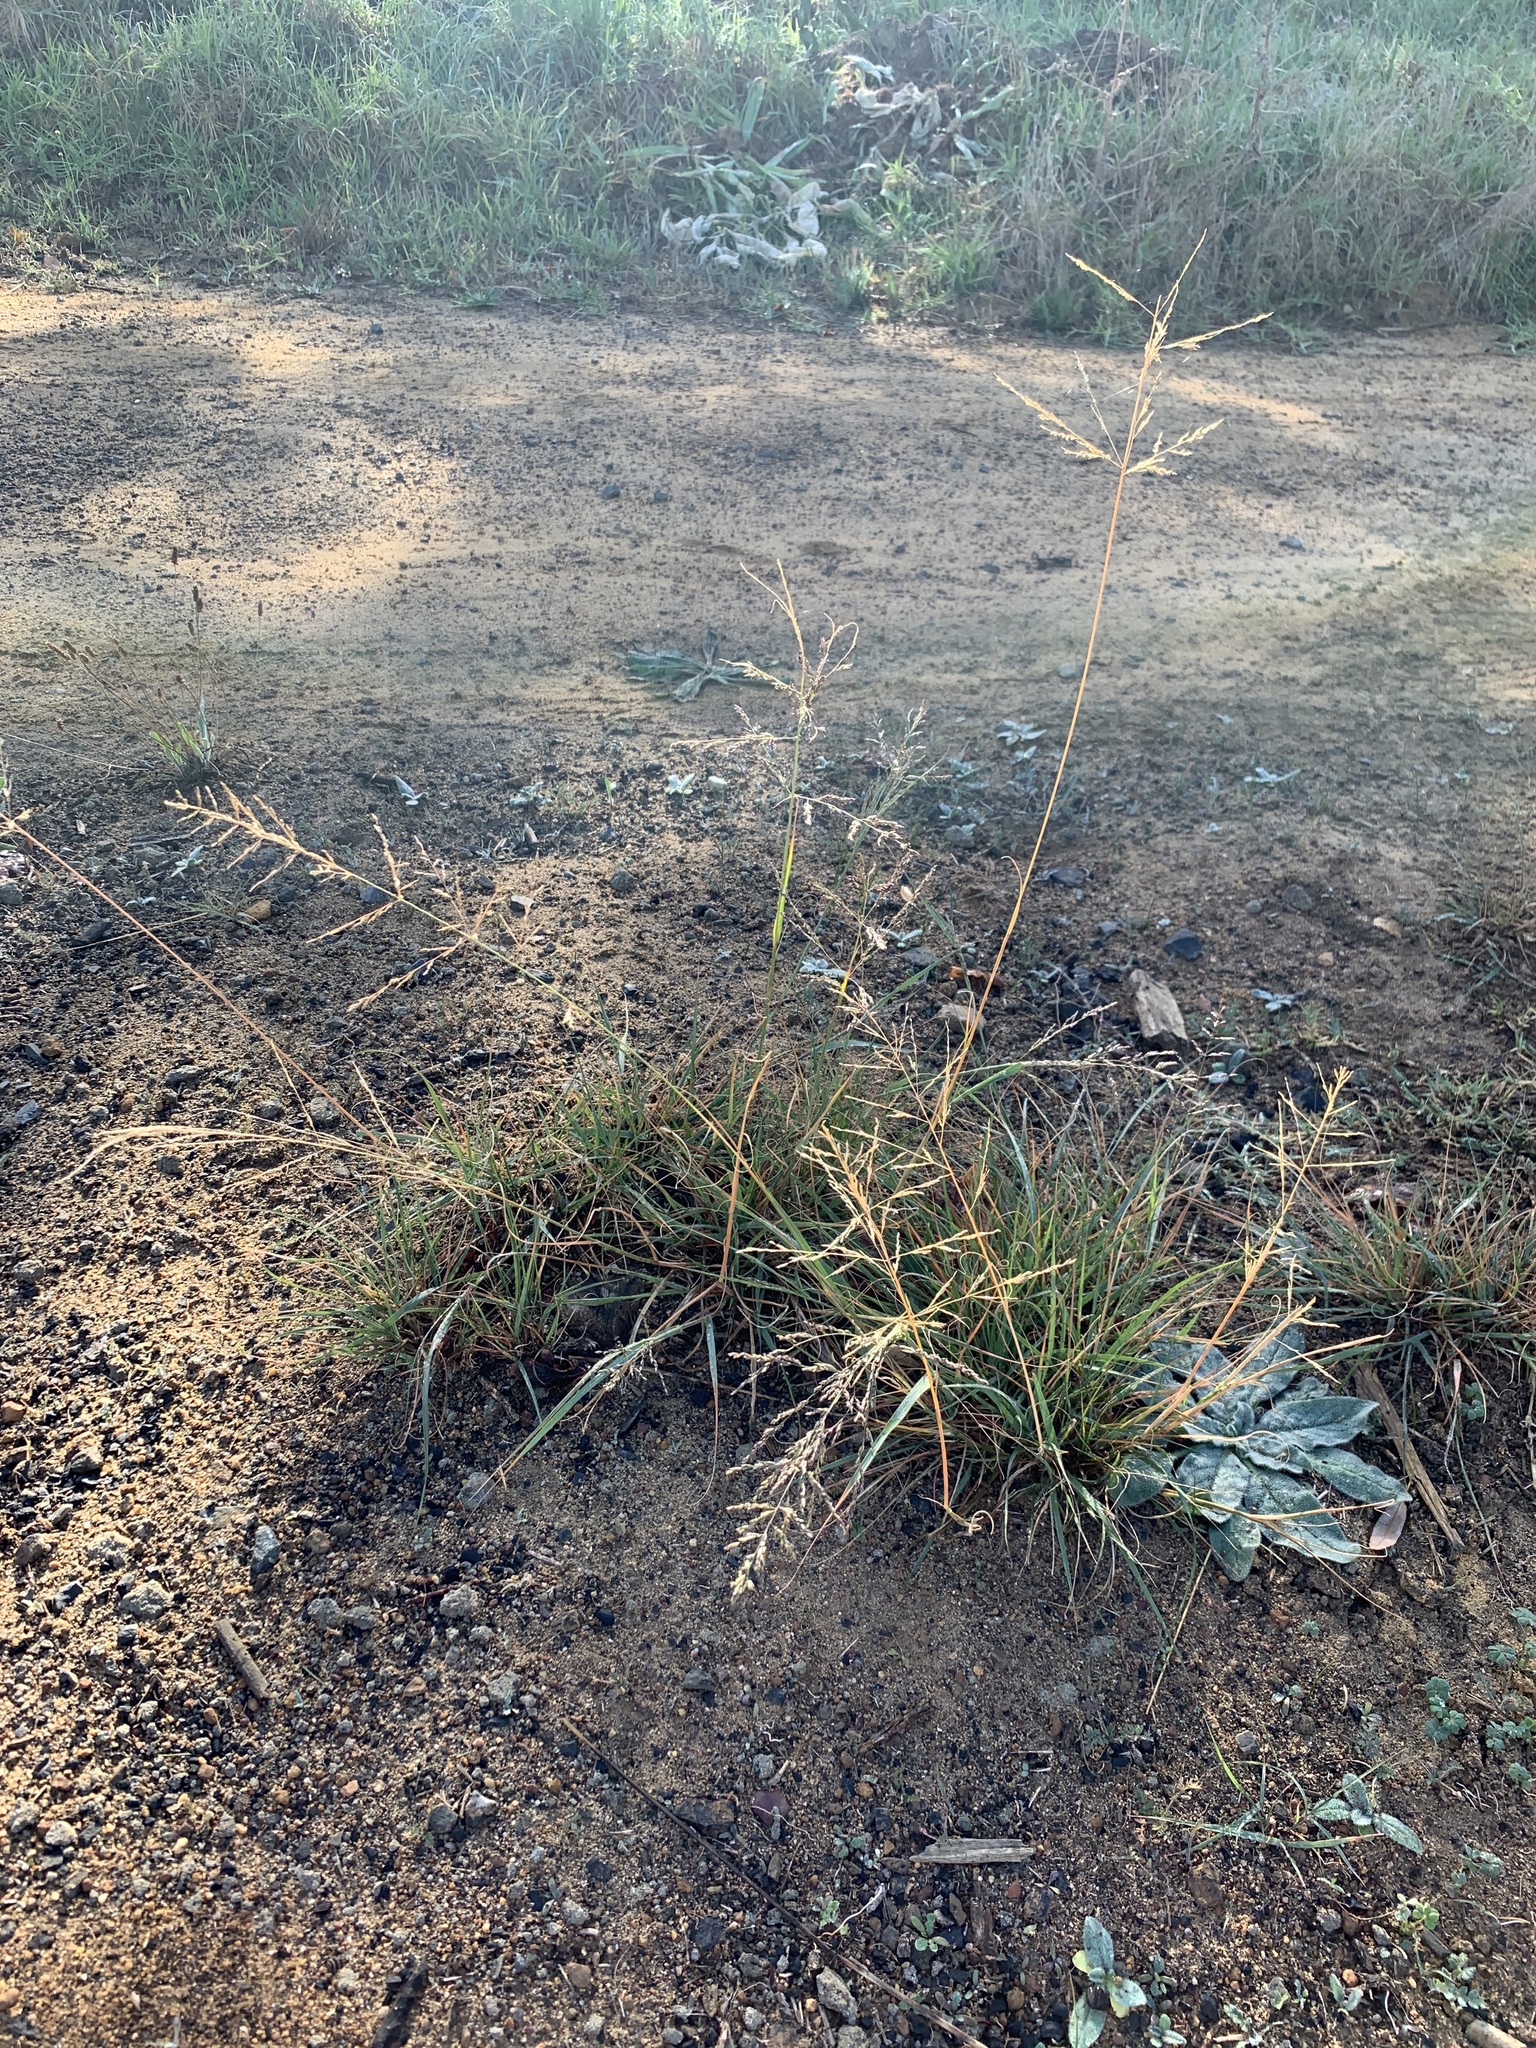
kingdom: Plantae
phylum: Tracheophyta
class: Liliopsida
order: Poales
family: Poaceae
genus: Eragrostis
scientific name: Eragrostis curvula
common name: African love-grass
